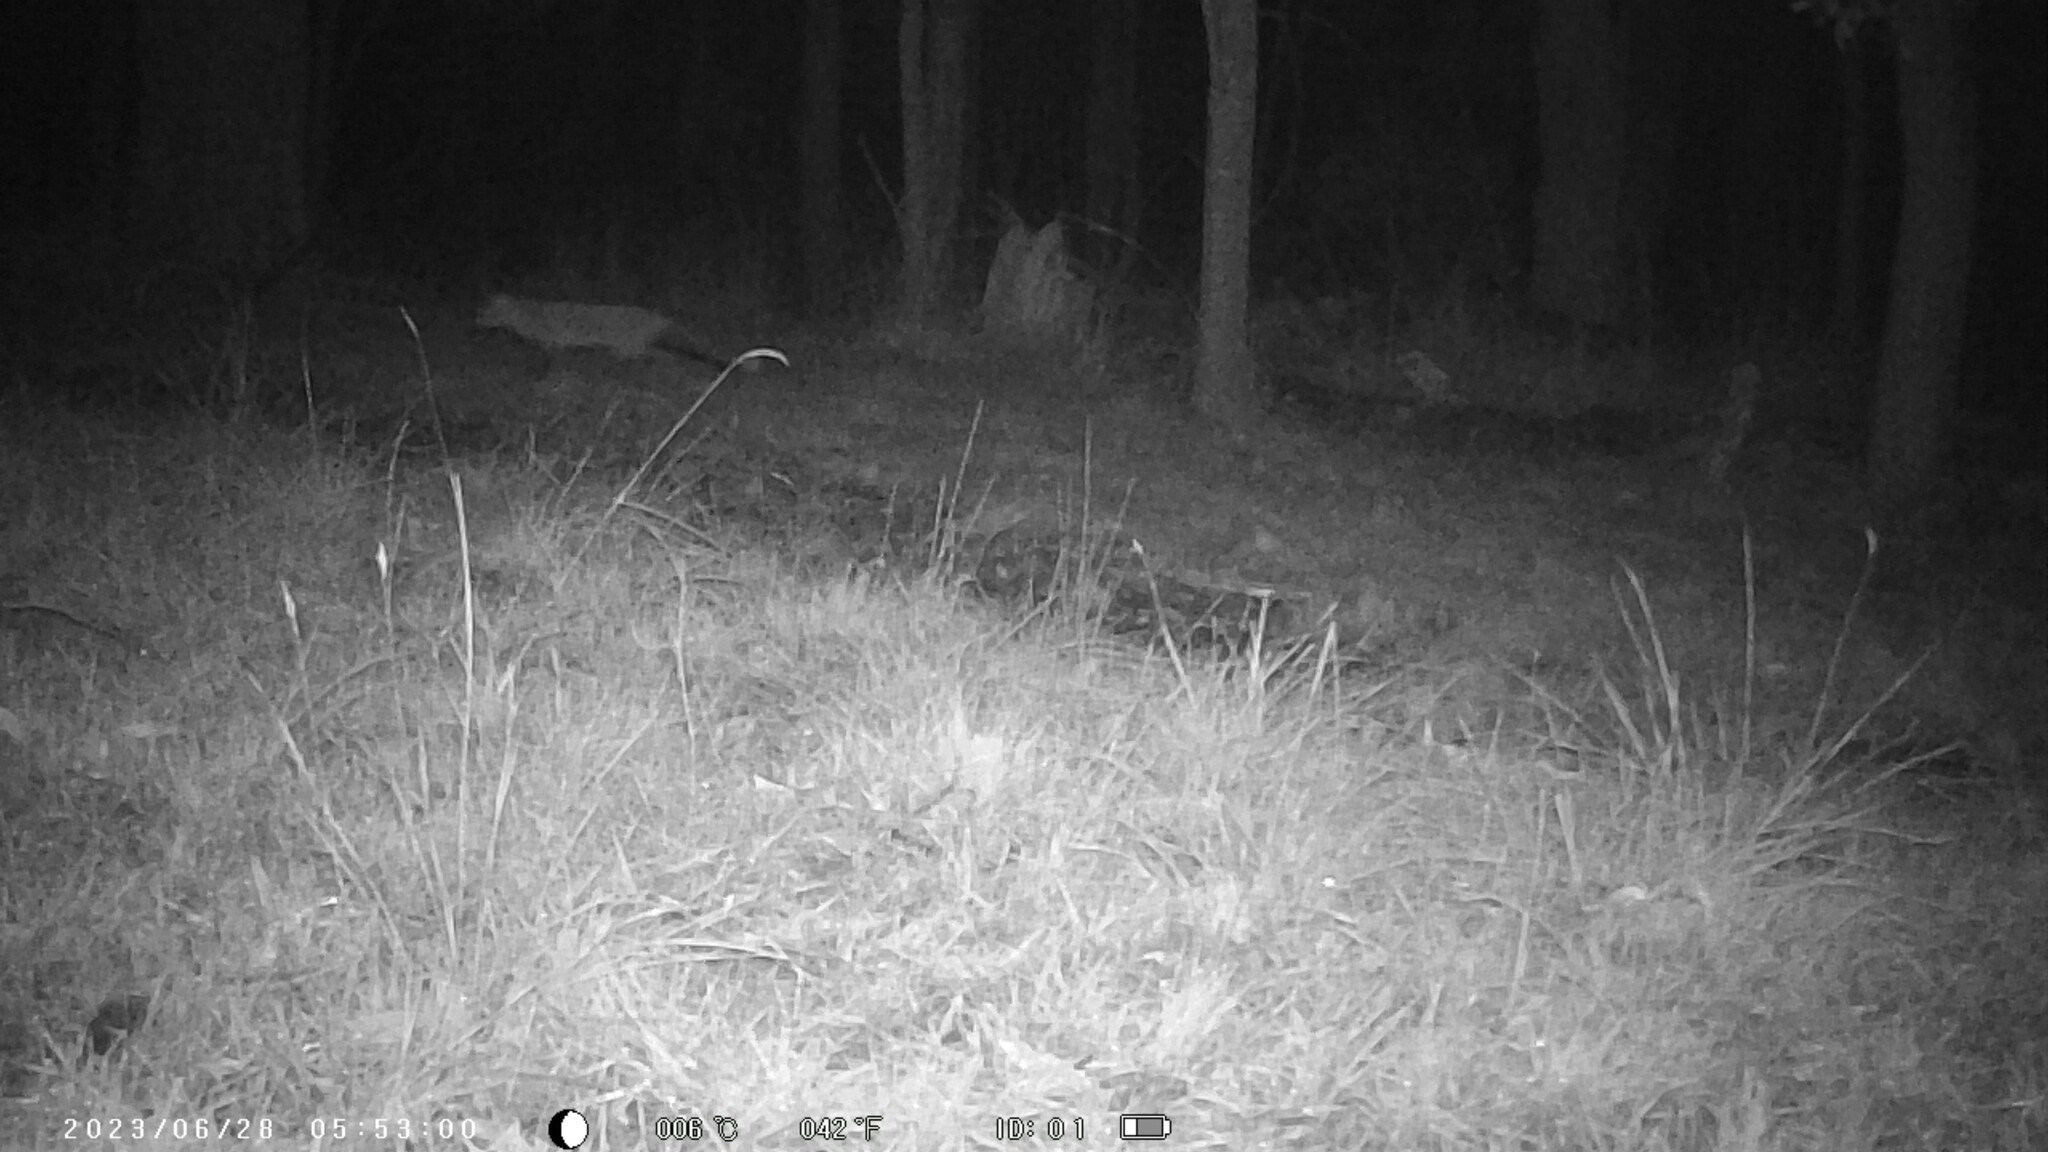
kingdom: Animalia
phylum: Chordata
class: Mammalia
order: Carnivora
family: Canidae
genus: Vulpes
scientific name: Vulpes vulpes
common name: Red fox
